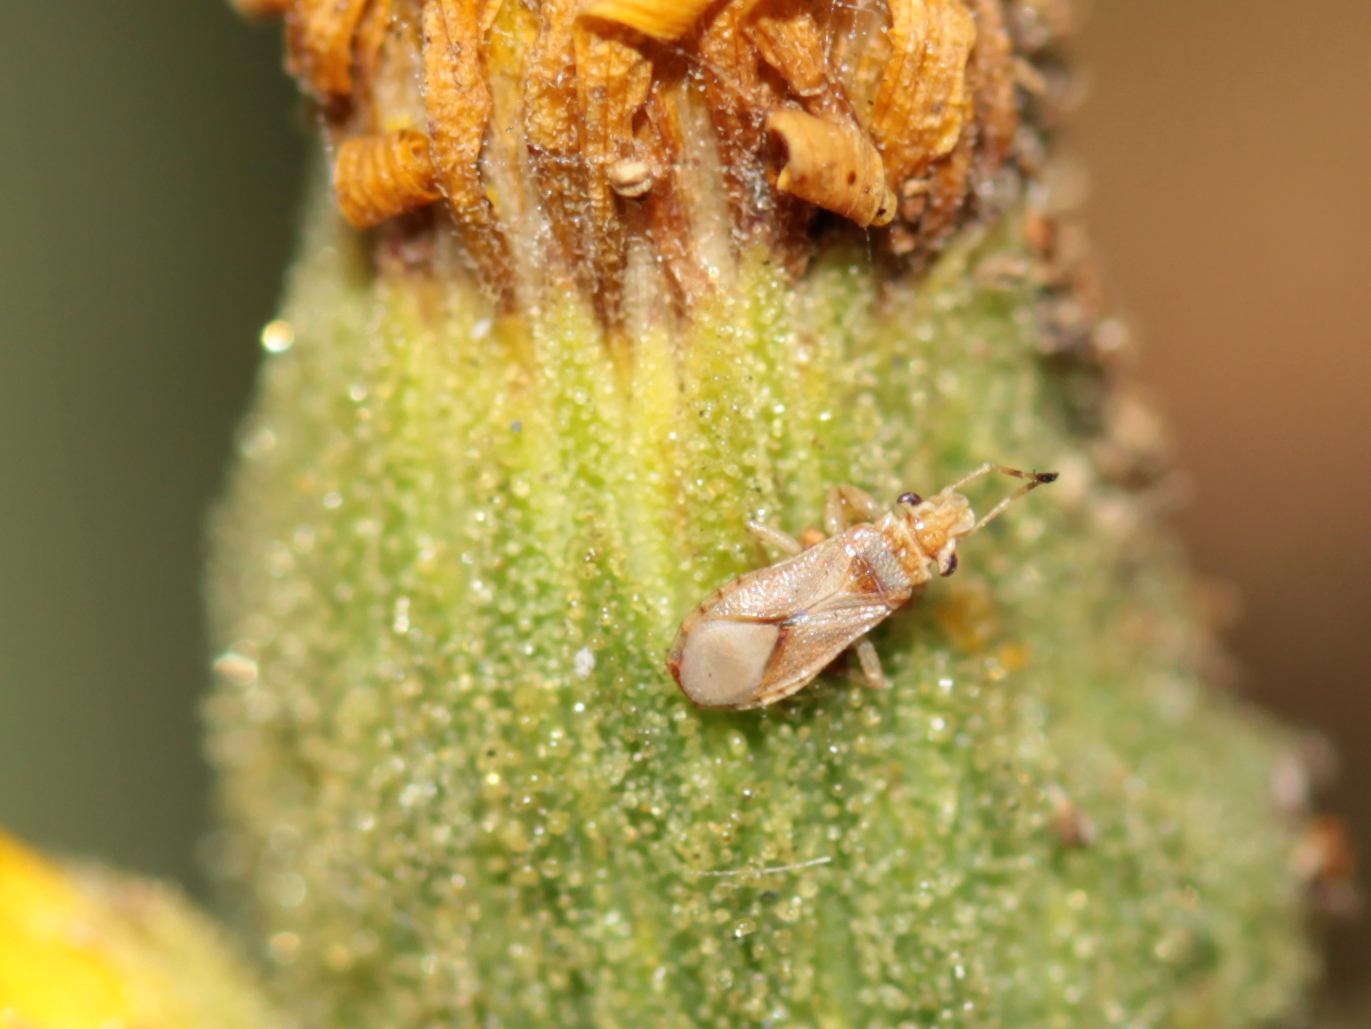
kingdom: Animalia
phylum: Arthropoda
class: Insecta
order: Hemiptera
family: Thaumastocoridae
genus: Thaumastocoris
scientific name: Thaumastocoris peregrinus
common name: Bronze bug
